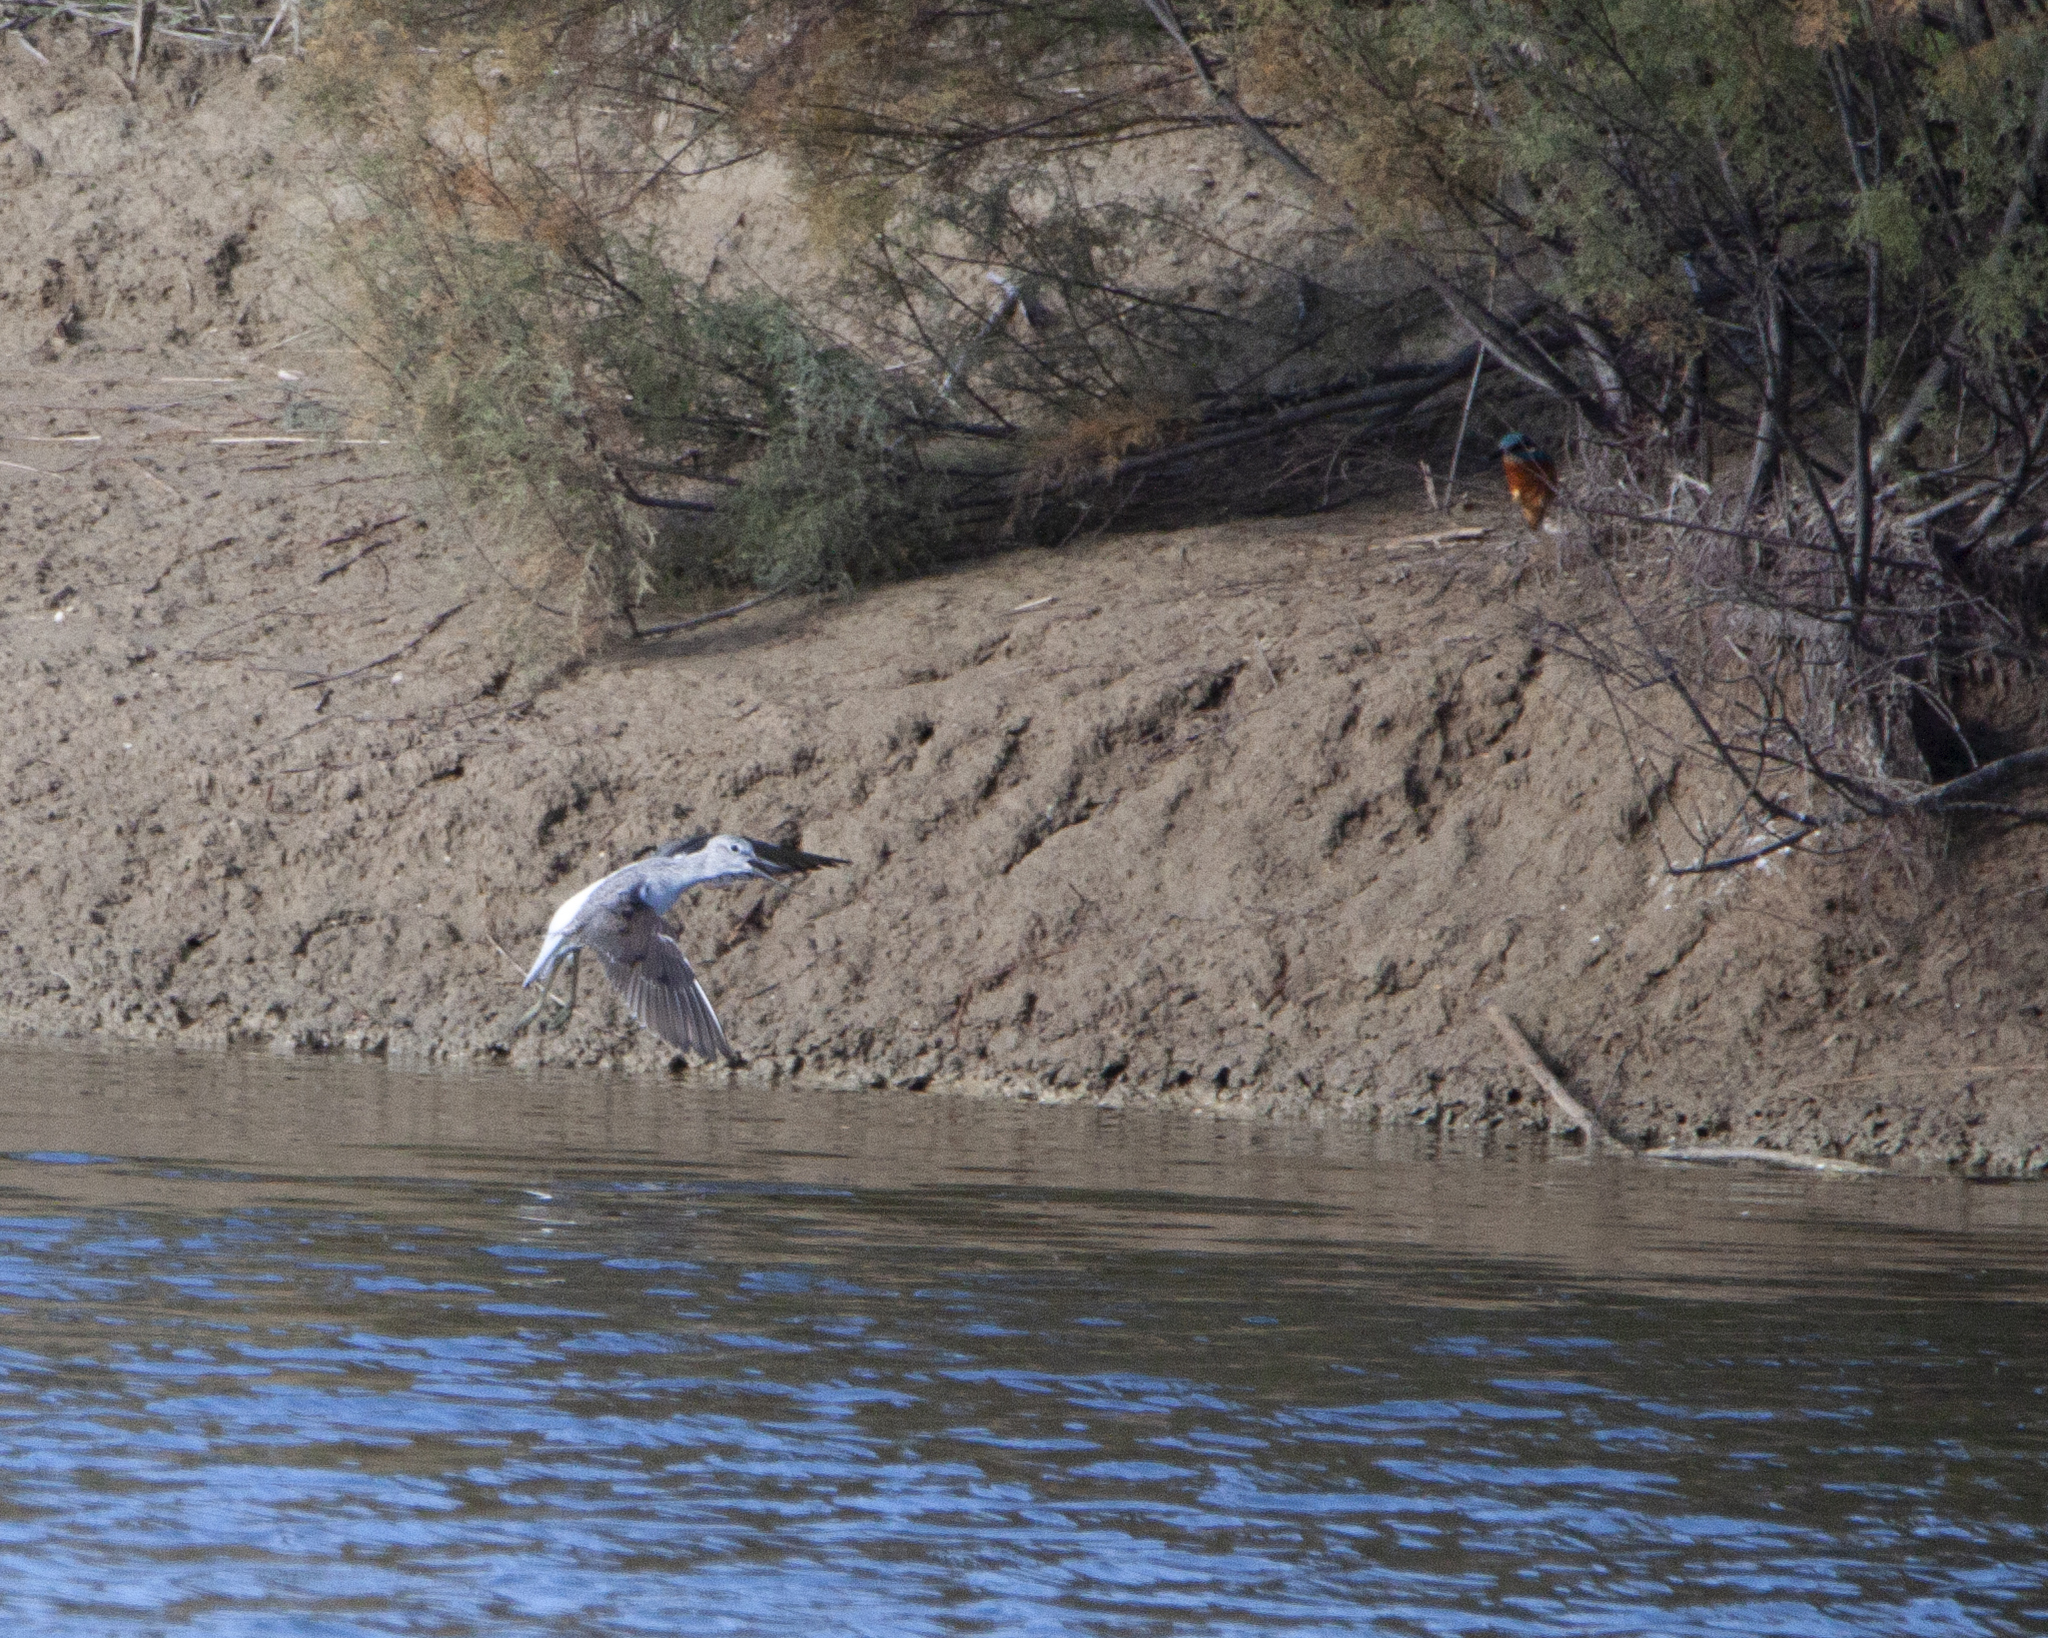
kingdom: Animalia
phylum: Chordata
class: Aves
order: Coraciiformes
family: Alcedinidae
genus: Alcedo
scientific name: Alcedo atthis
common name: Common kingfisher
